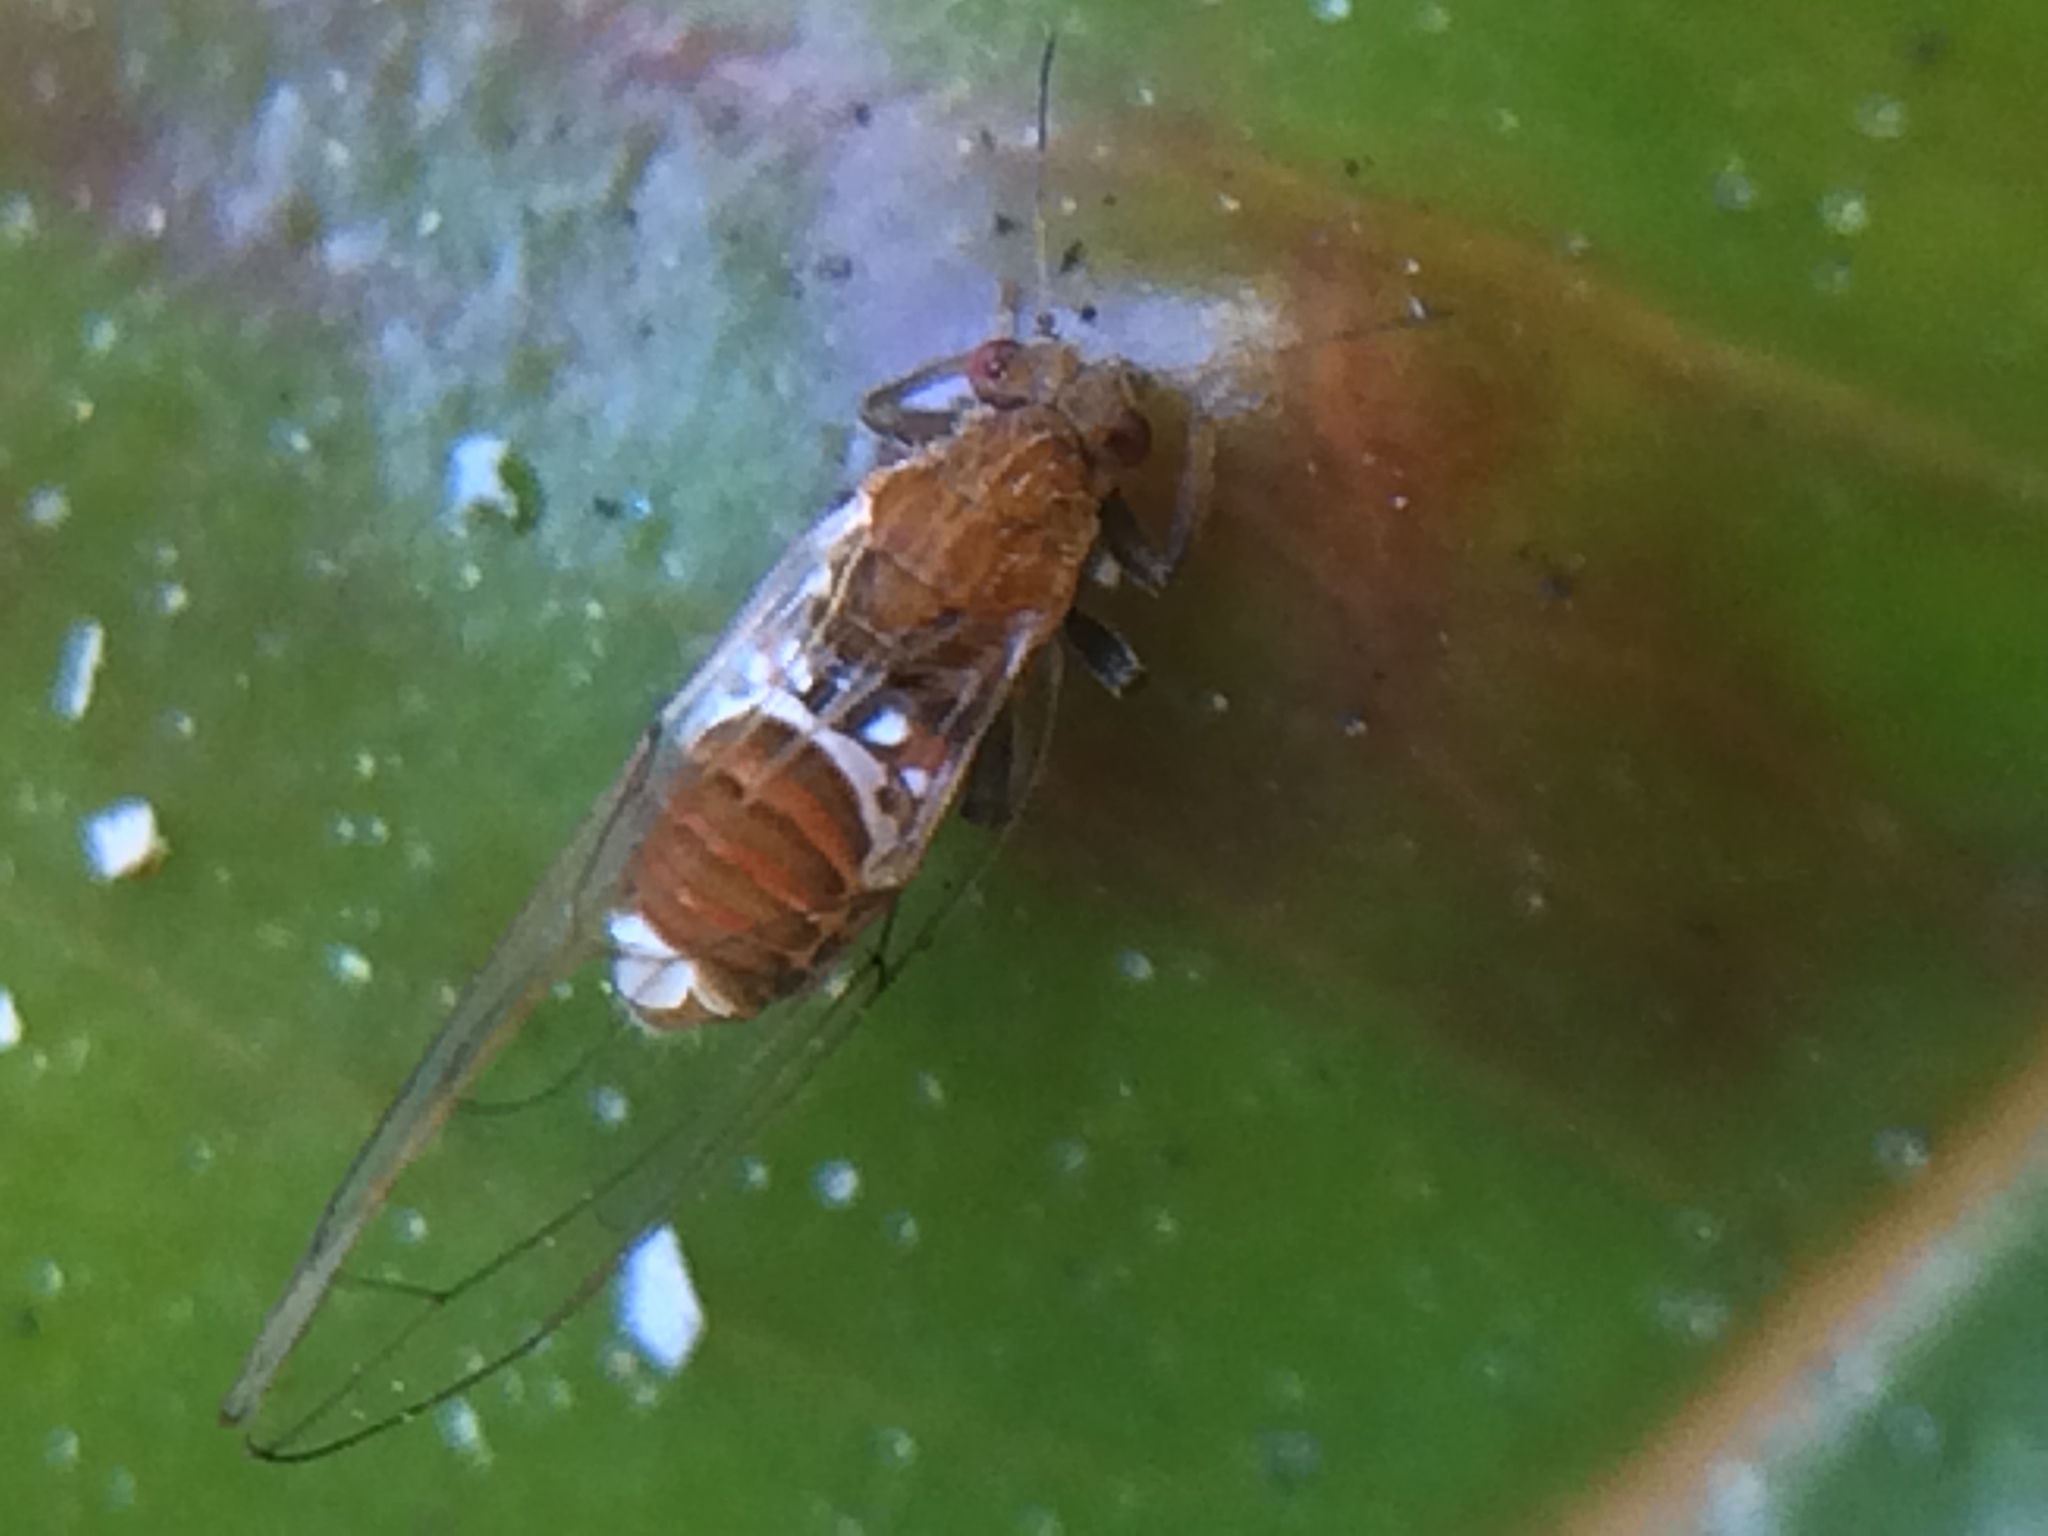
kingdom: Animalia
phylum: Arthropoda
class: Insecta
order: Hemiptera
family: Triozidae
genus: Trioza
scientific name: Trioza adventicia
